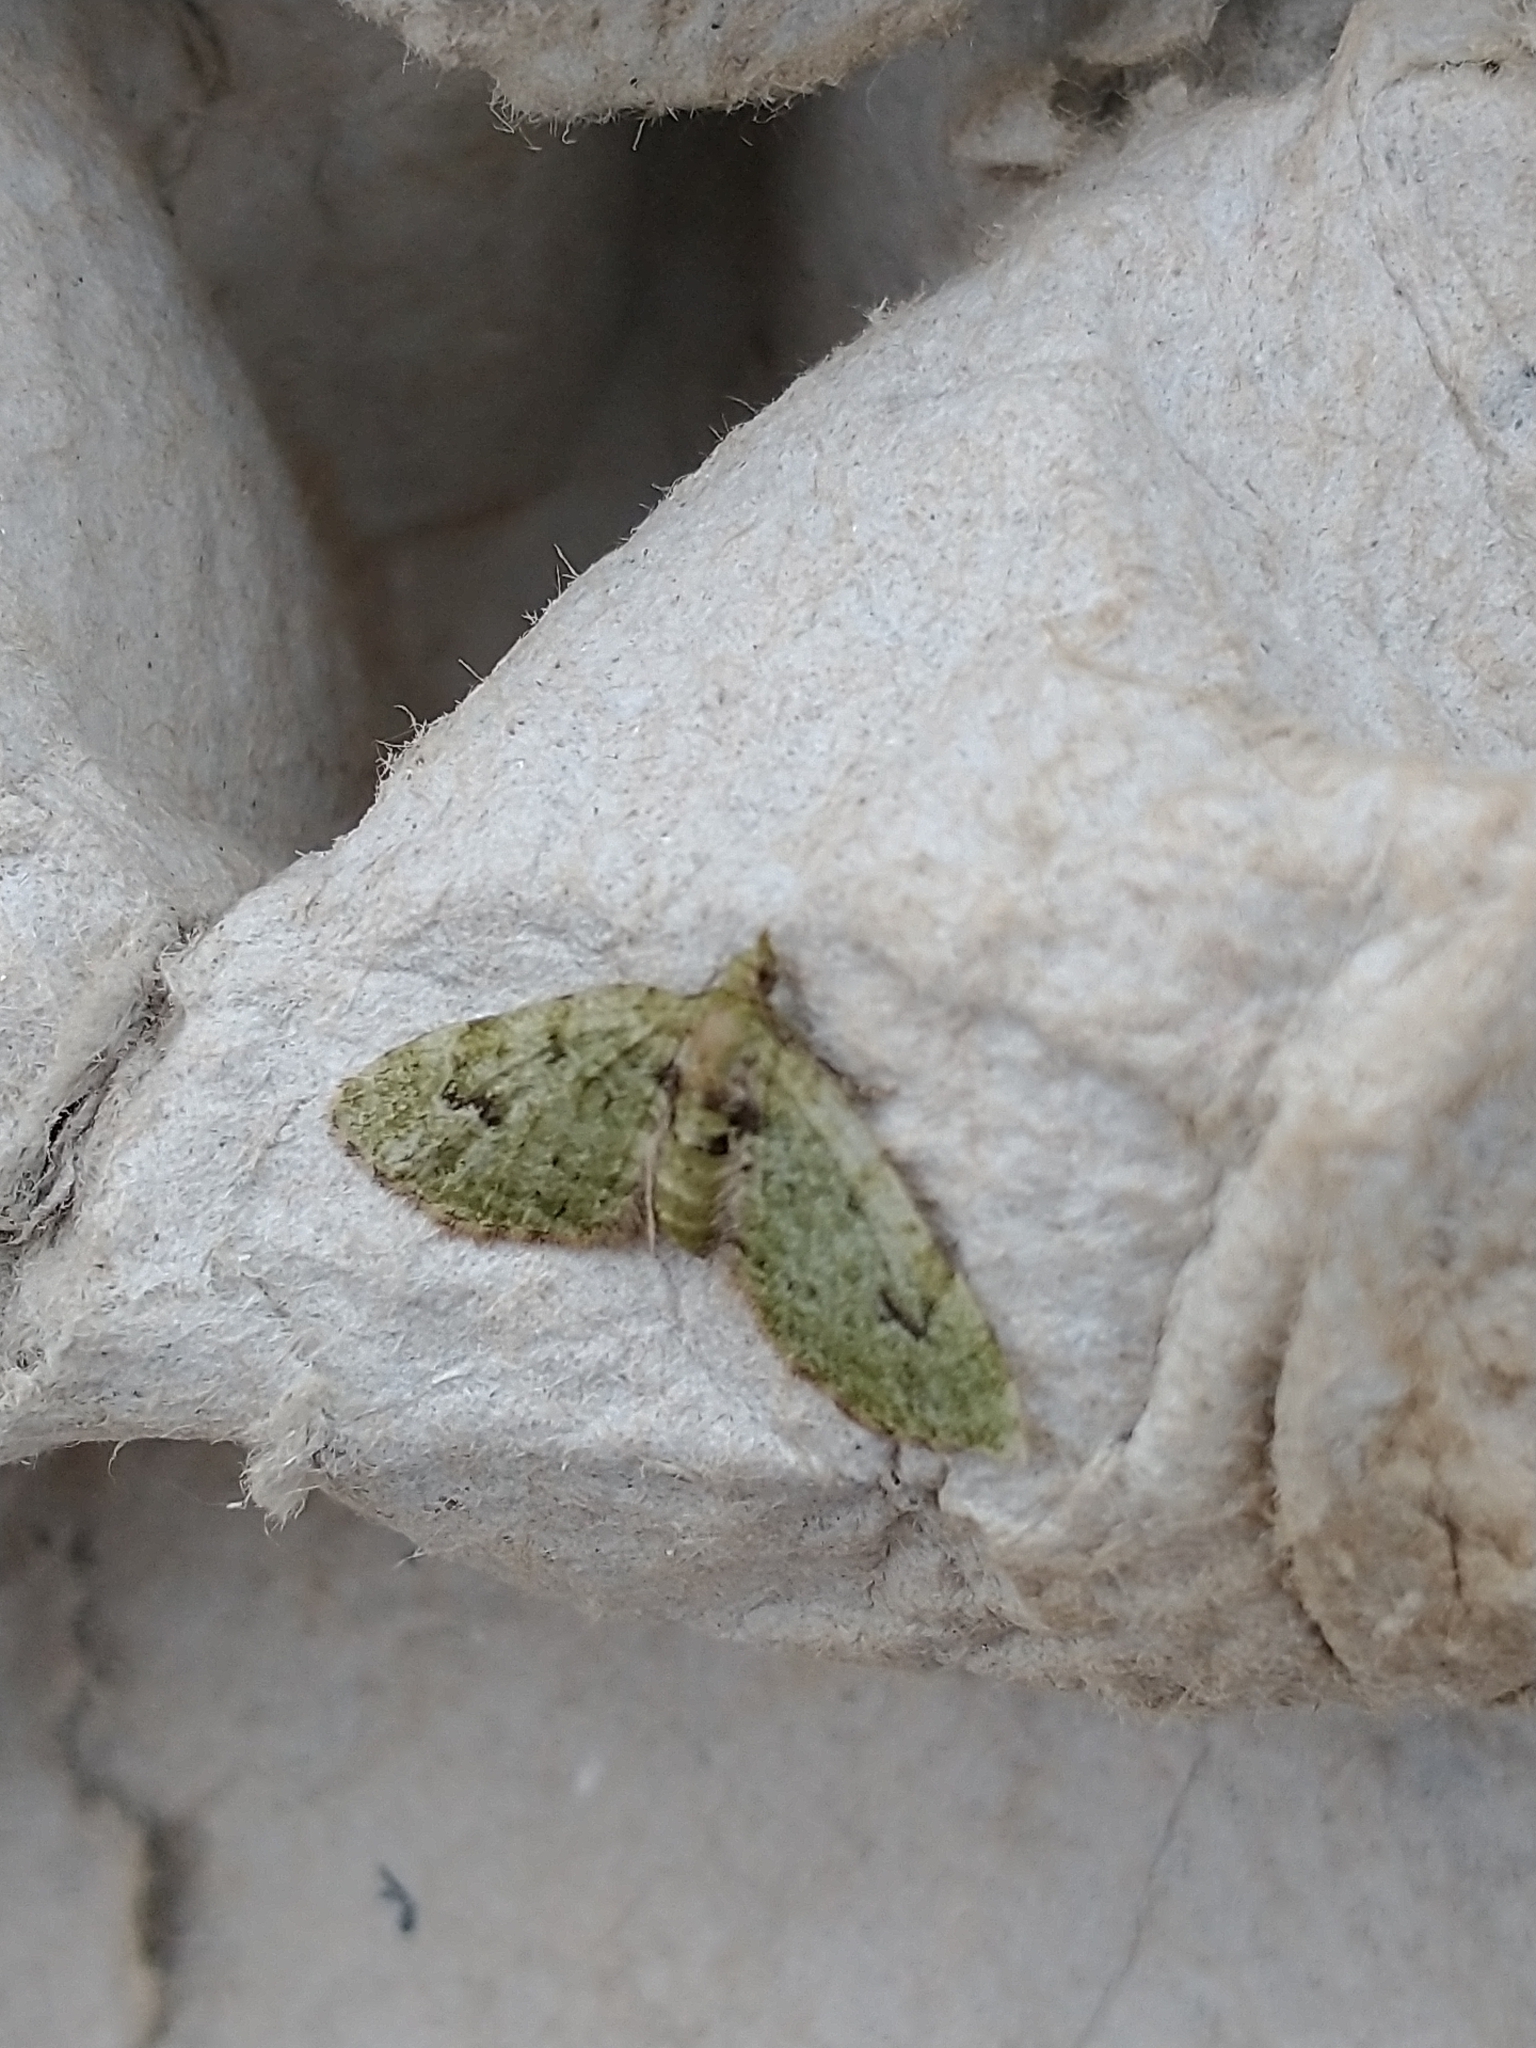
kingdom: Animalia
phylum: Arthropoda
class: Insecta
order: Lepidoptera
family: Geometridae
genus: Chloroclystis
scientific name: Chloroclystis v-ata
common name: V-pug
